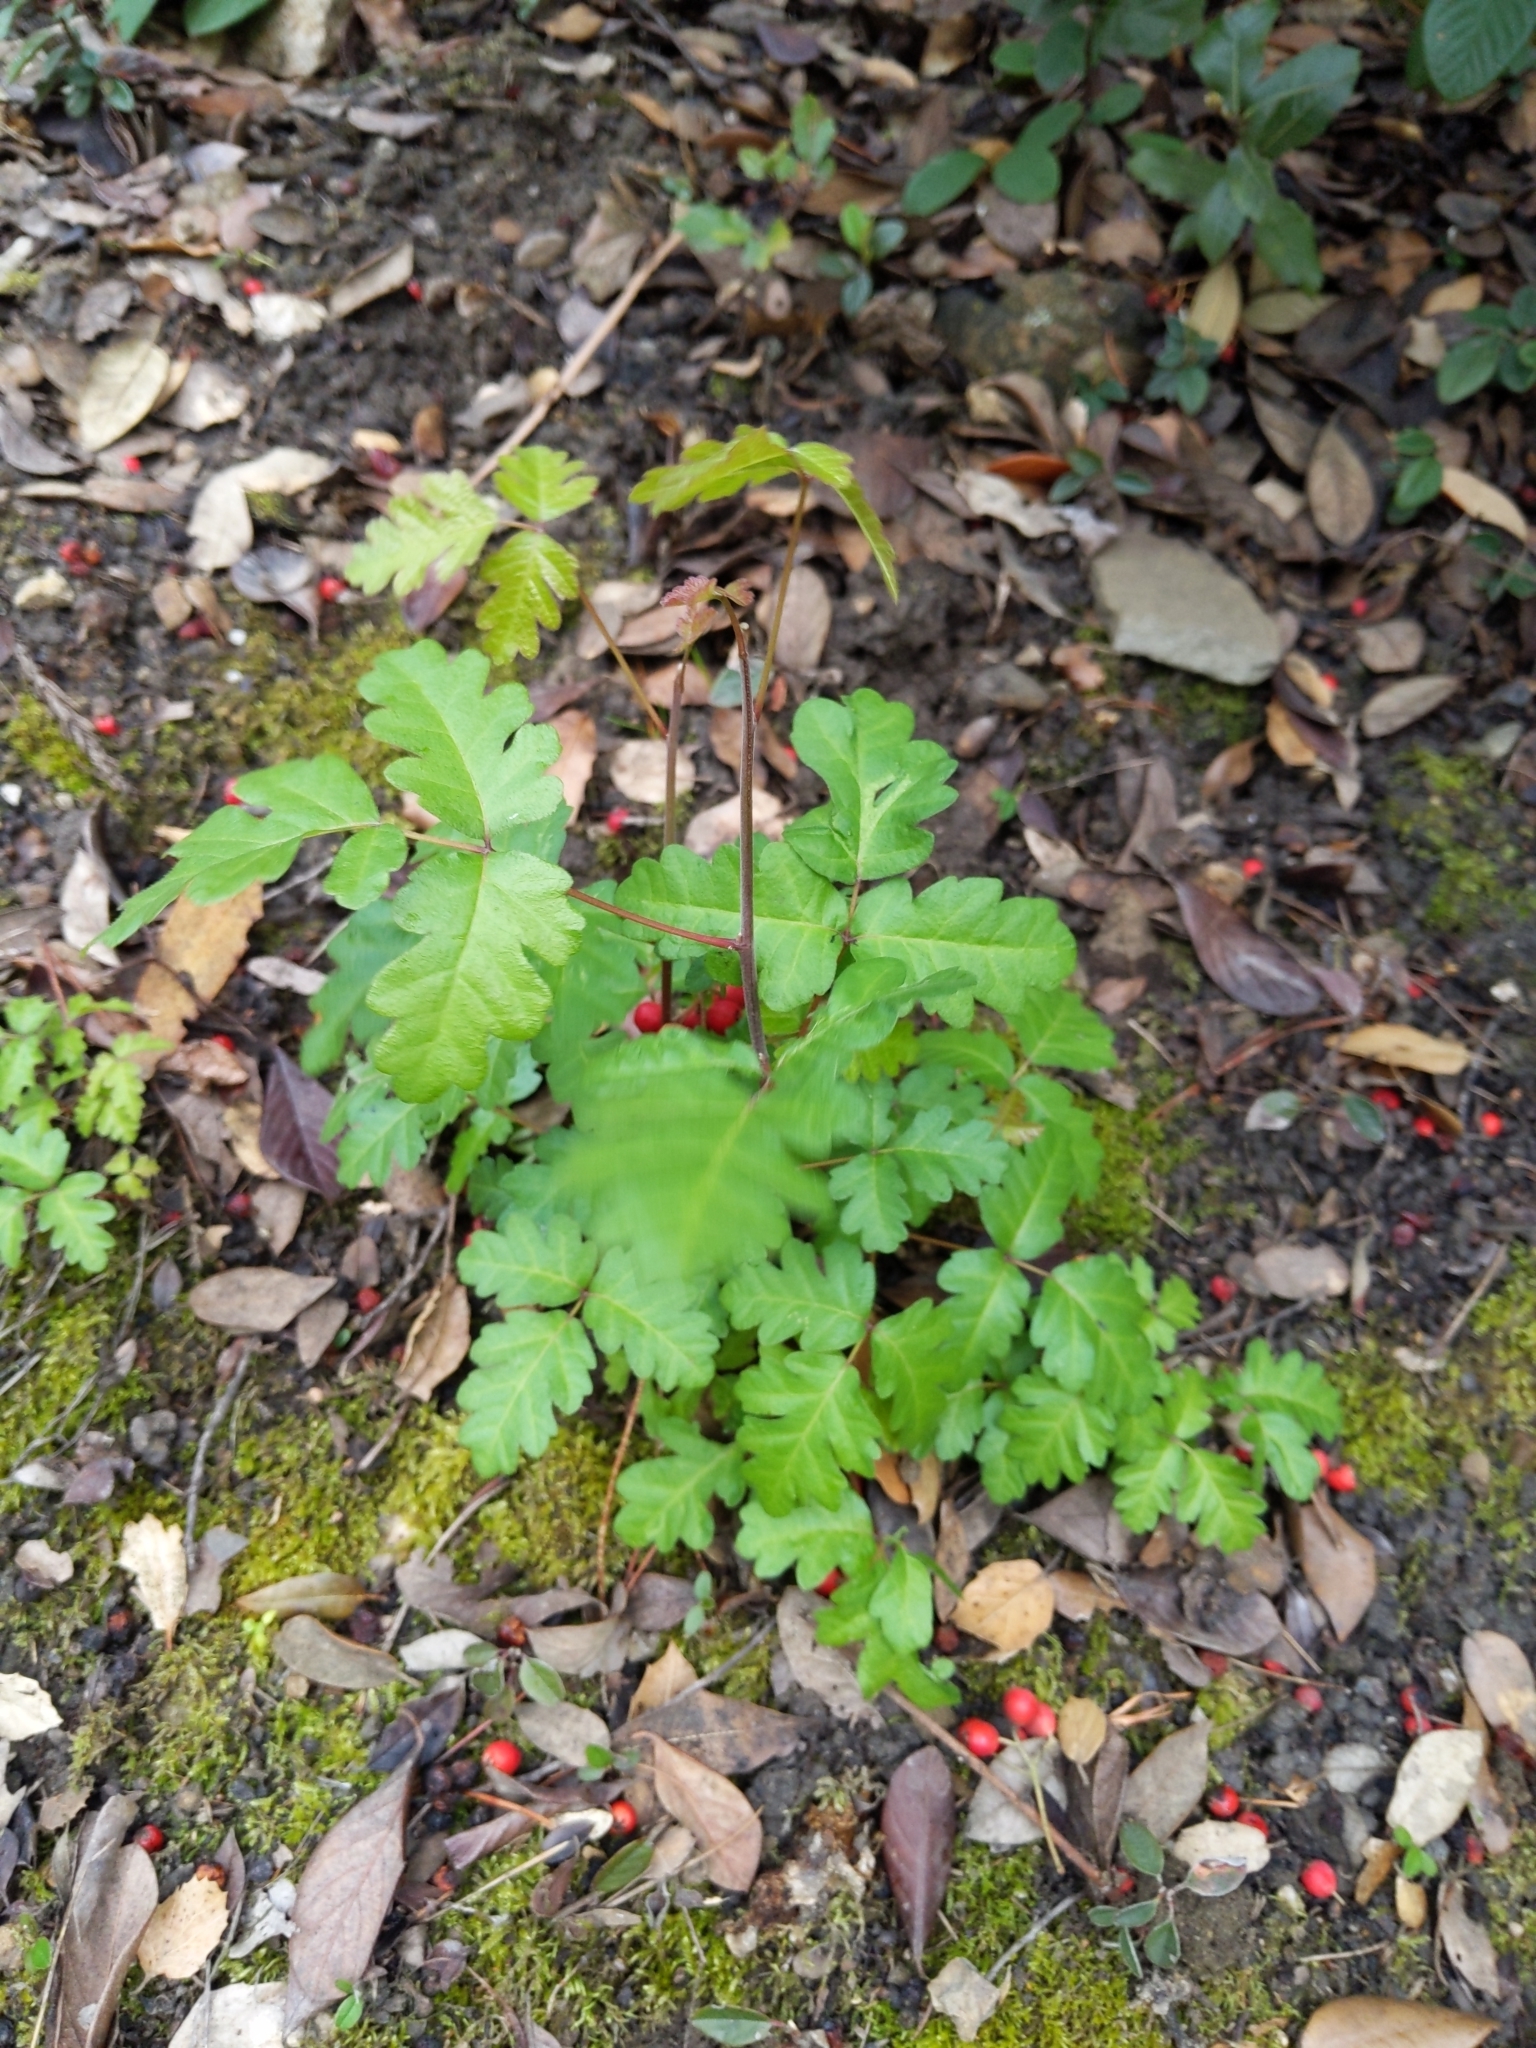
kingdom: Plantae
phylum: Tracheophyta
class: Magnoliopsida
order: Sapindales
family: Anacardiaceae
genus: Toxicodendron
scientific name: Toxicodendron diversilobum
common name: Pacific poison-oak
